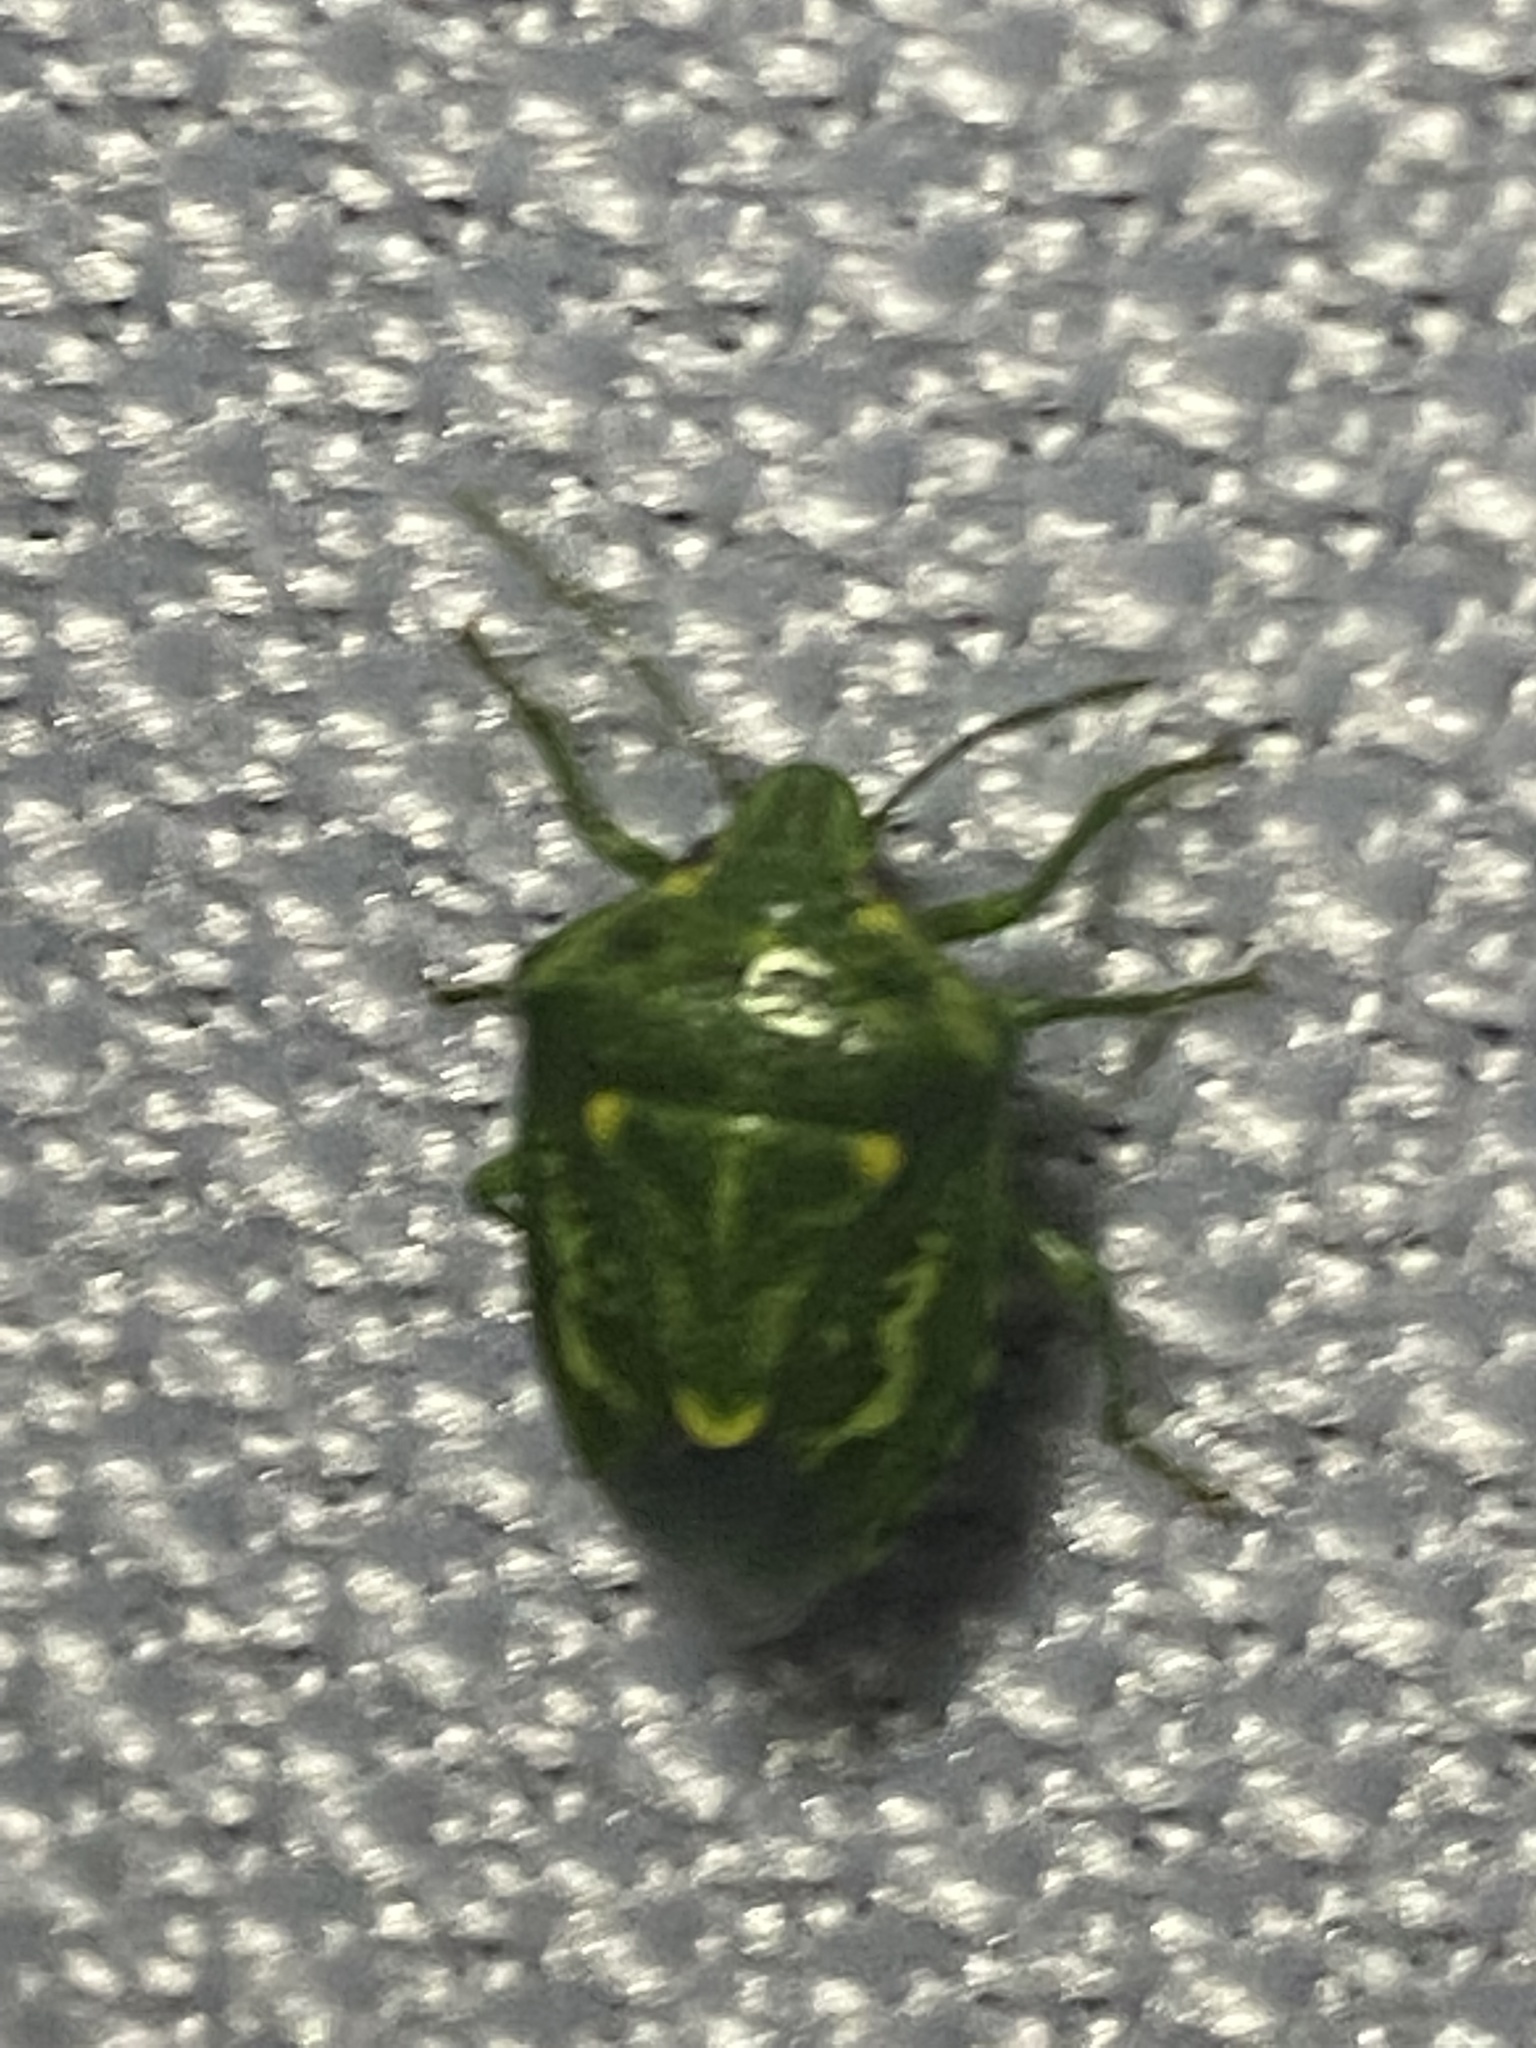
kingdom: Animalia
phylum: Arthropoda
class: Insecta
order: Hemiptera
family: Pentatomidae
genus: Banasa
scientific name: Banasa euchlora
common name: Cedar berry bug
